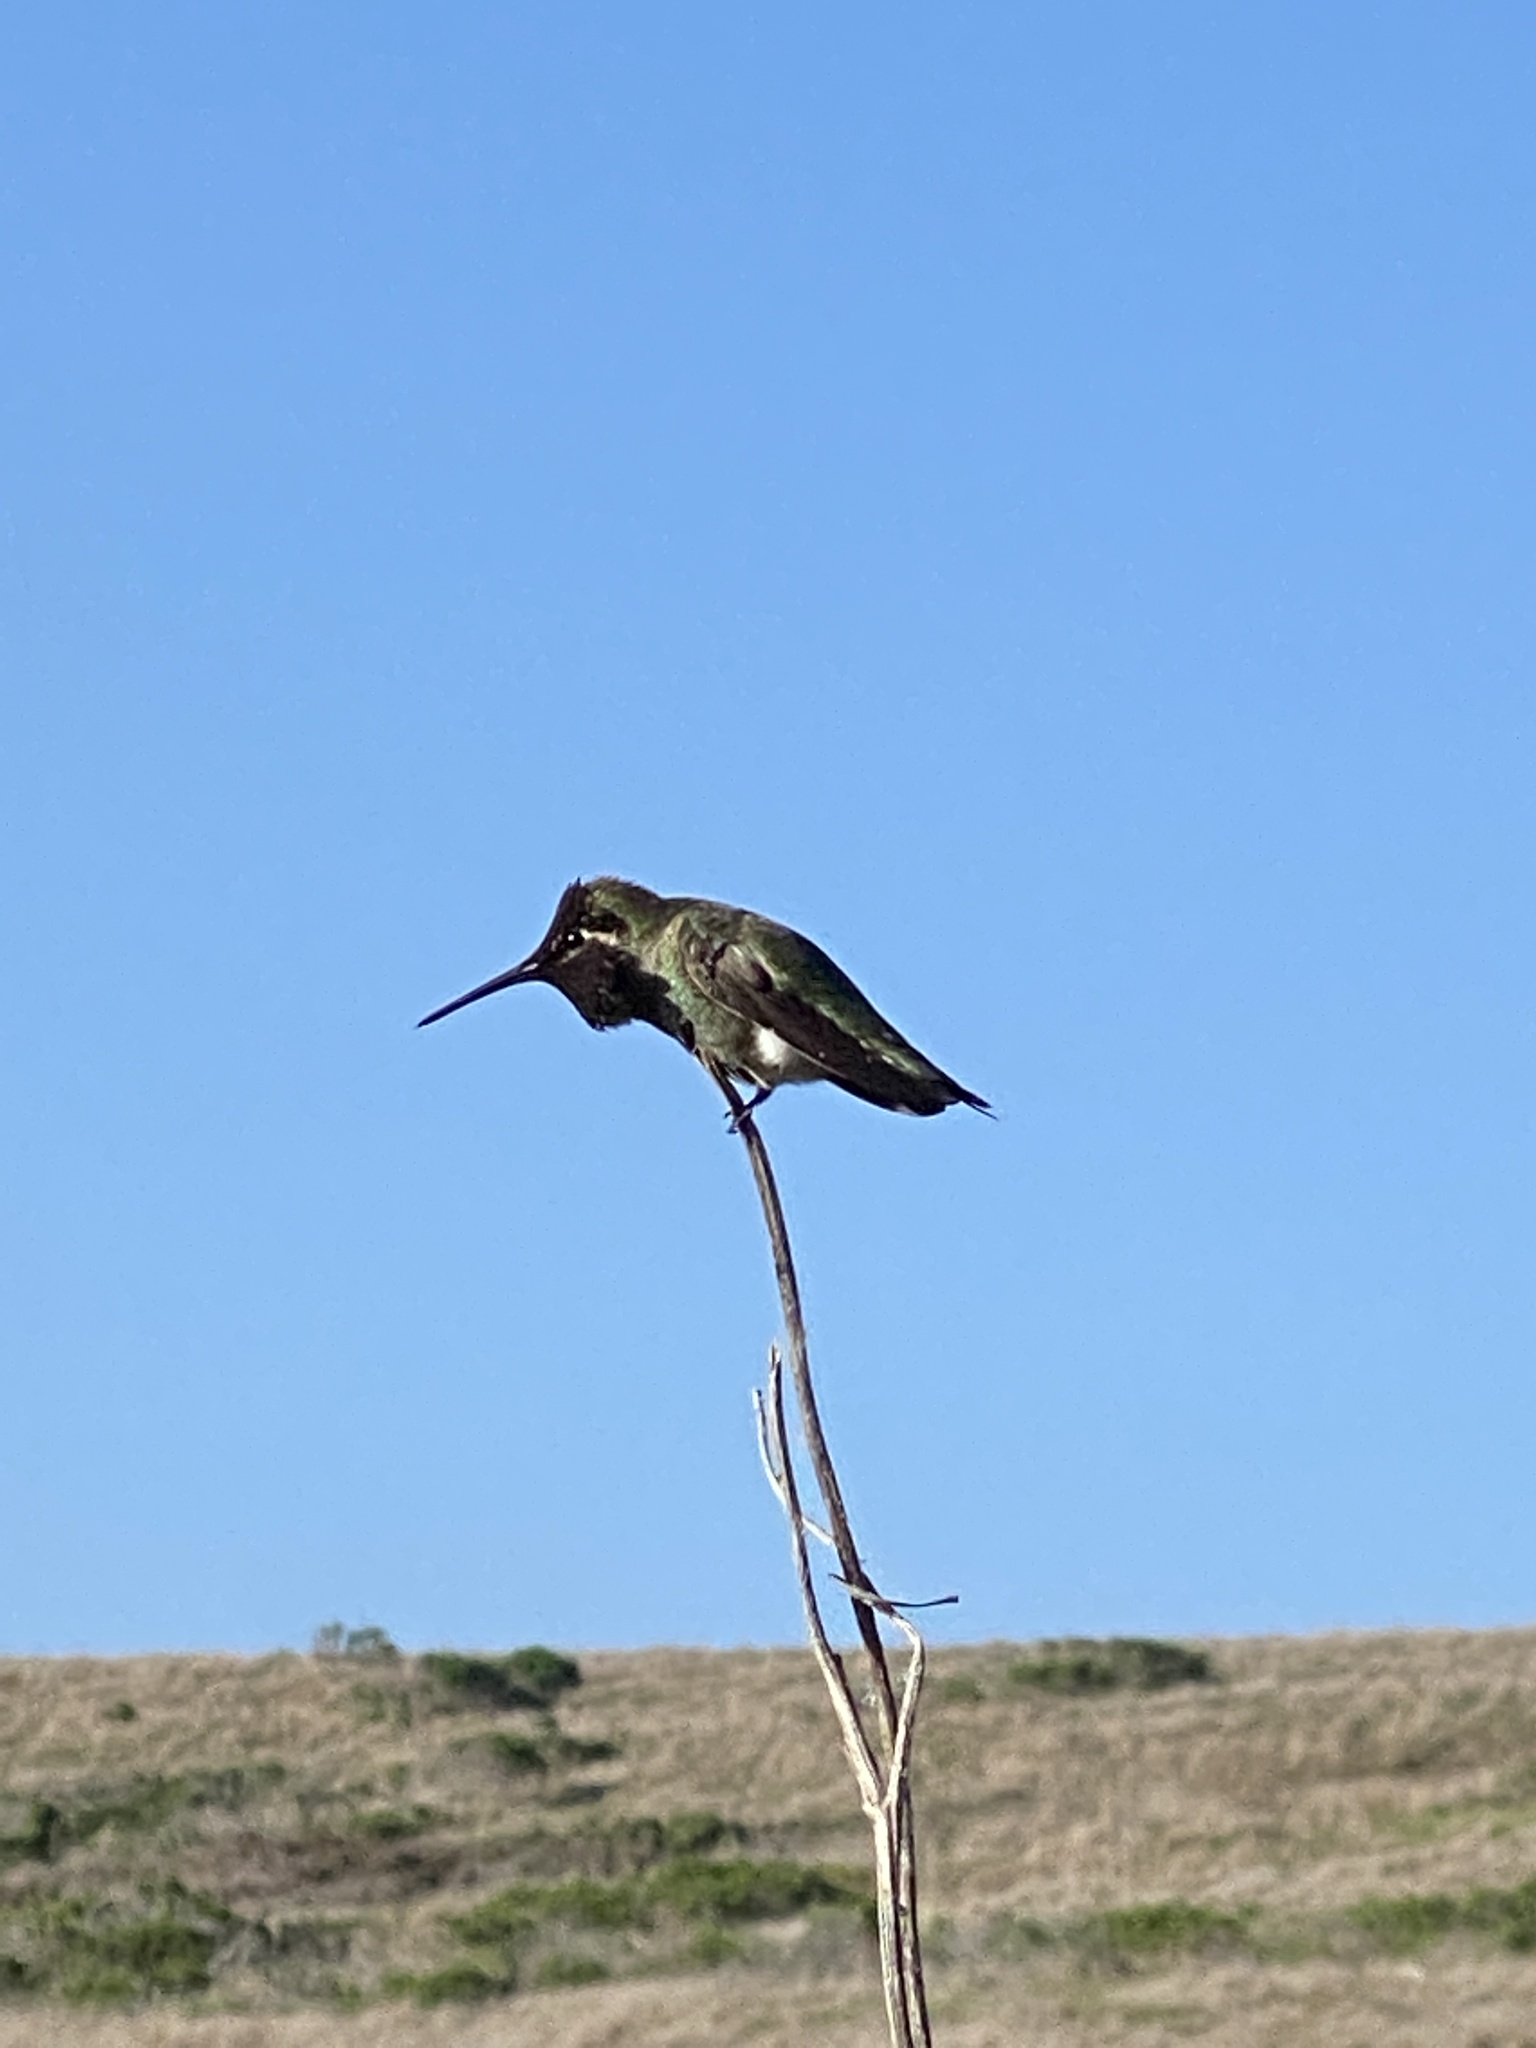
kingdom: Animalia
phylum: Chordata
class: Aves
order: Apodiformes
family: Trochilidae
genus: Calypte
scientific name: Calypte anna
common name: Anna's hummingbird
